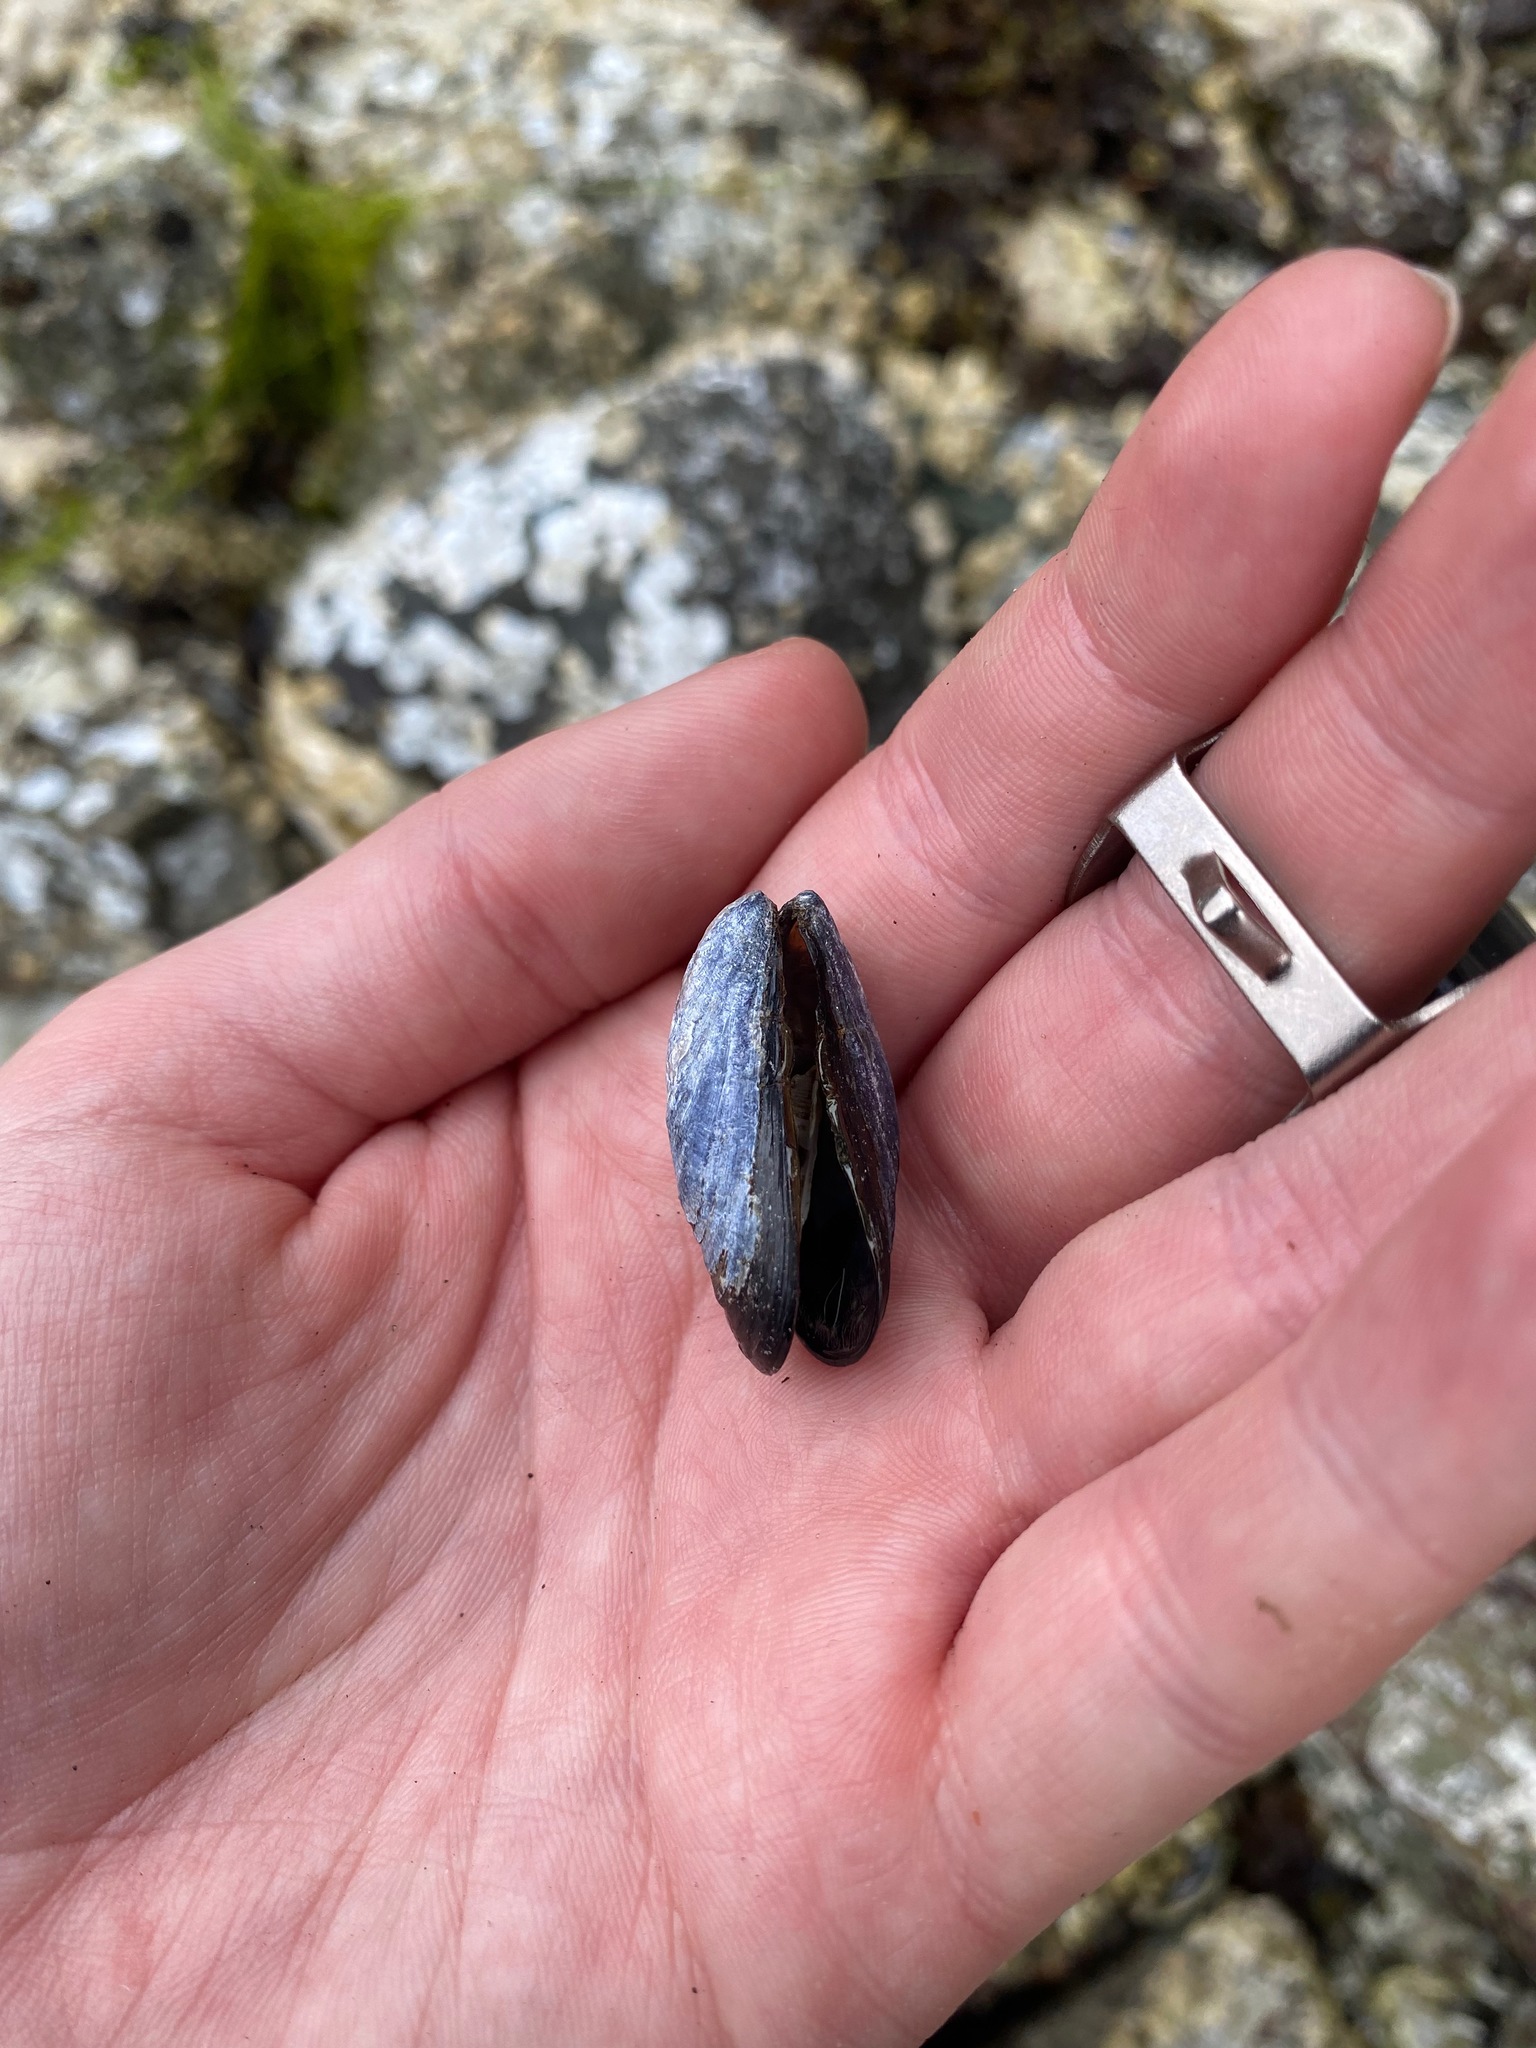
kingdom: Animalia
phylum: Mollusca
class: Bivalvia
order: Mytilida
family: Mytilidae
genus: Mytilus
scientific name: Mytilus
